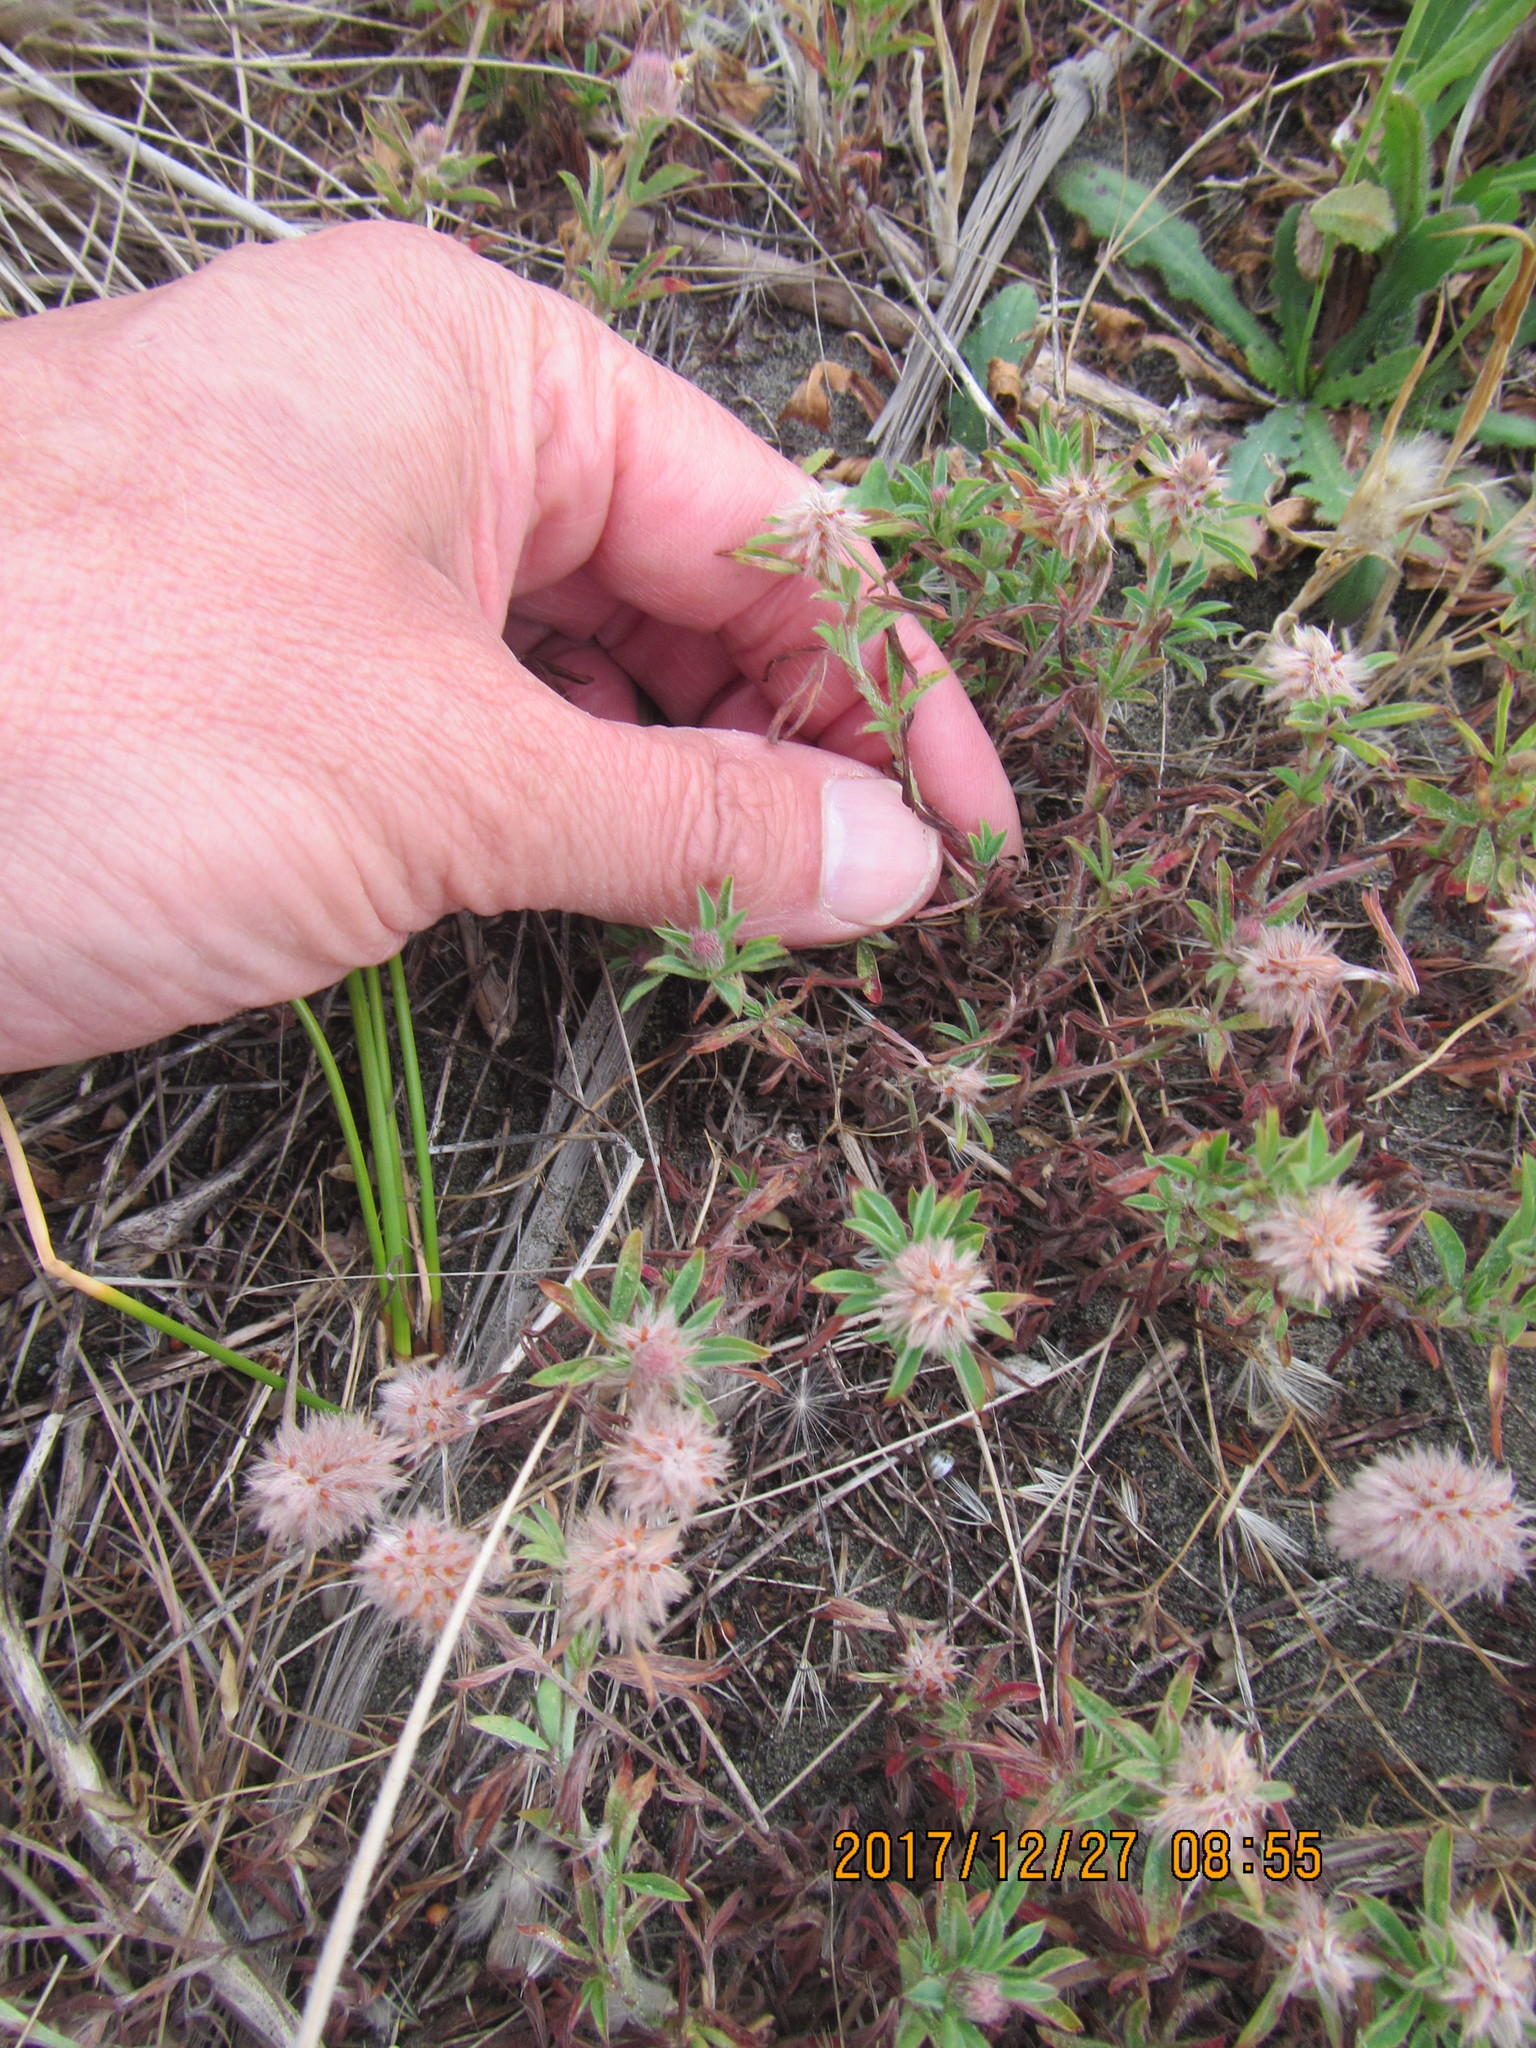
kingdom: Plantae
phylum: Tracheophyta
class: Magnoliopsida
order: Fabales
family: Fabaceae
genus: Trifolium
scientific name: Trifolium arvense
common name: Hare's-foot clover
